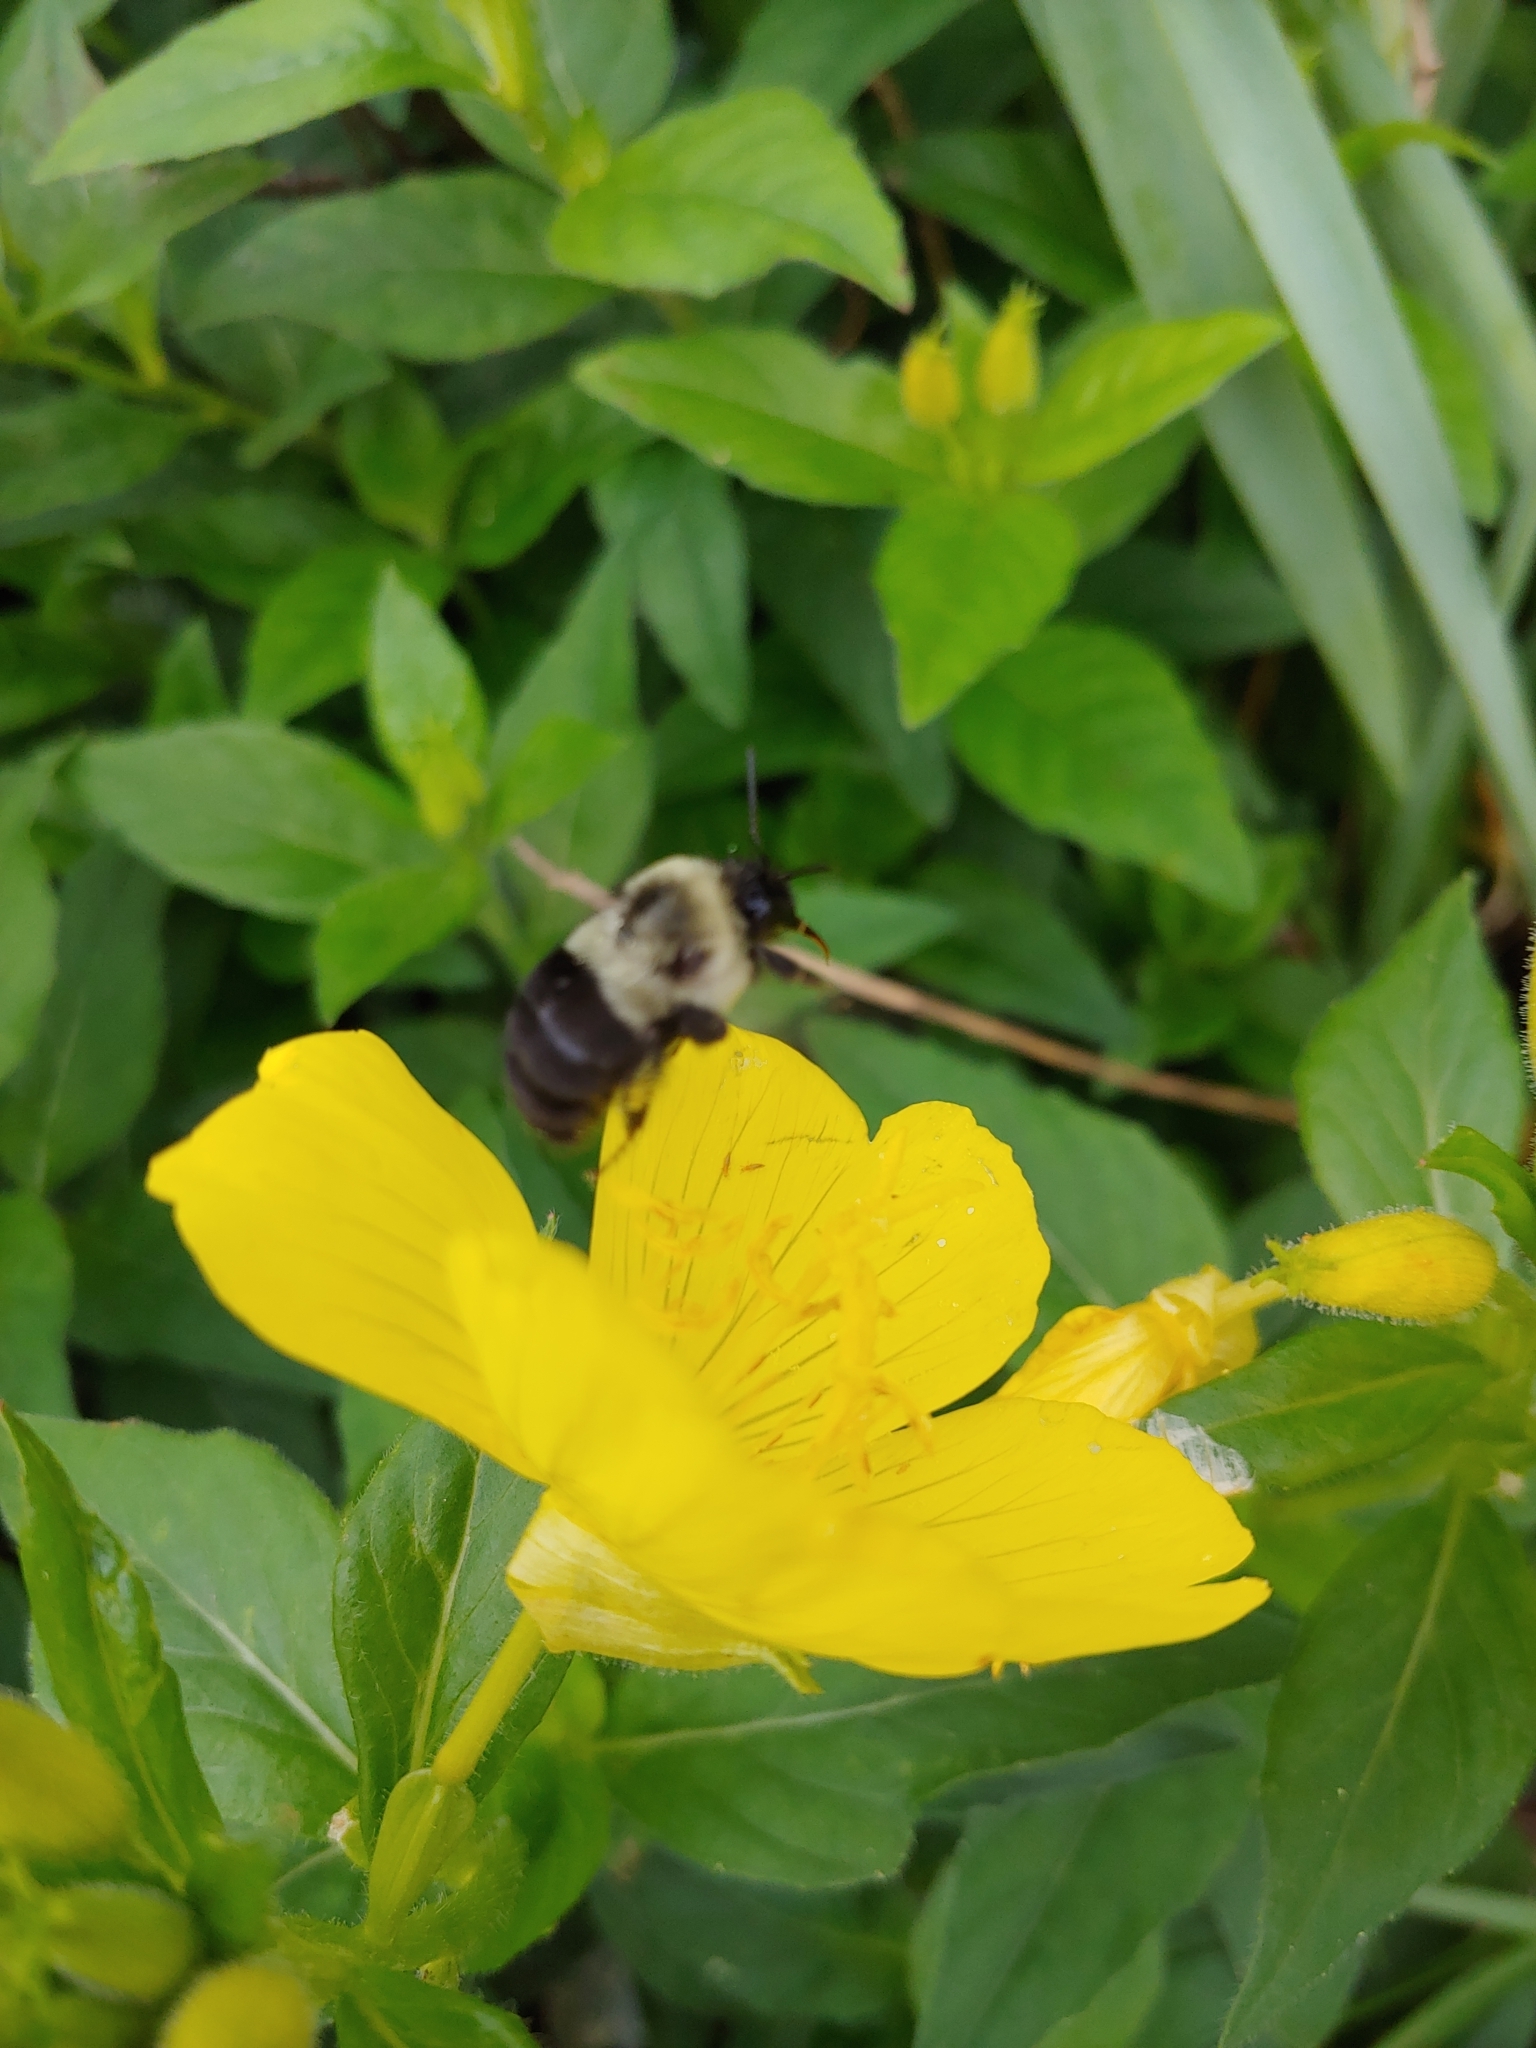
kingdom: Animalia
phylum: Arthropoda
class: Insecta
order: Hymenoptera
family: Apidae
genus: Bombus
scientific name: Bombus impatiens
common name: Common eastern bumble bee
